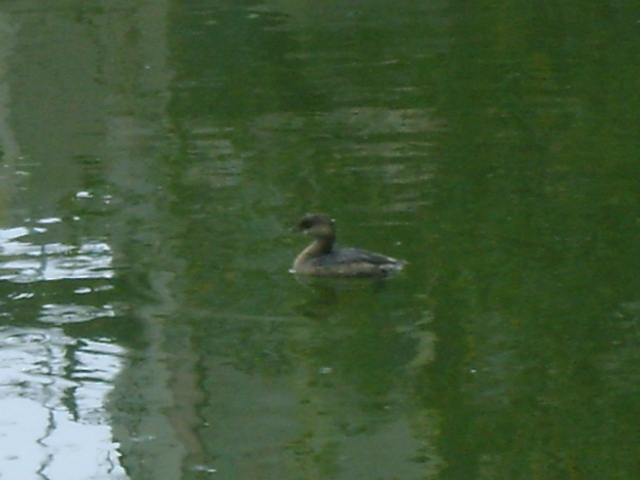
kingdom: Animalia
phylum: Chordata
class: Aves
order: Podicipediformes
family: Podicipedidae
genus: Podilymbus
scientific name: Podilymbus podiceps
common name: Pied-billed grebe
